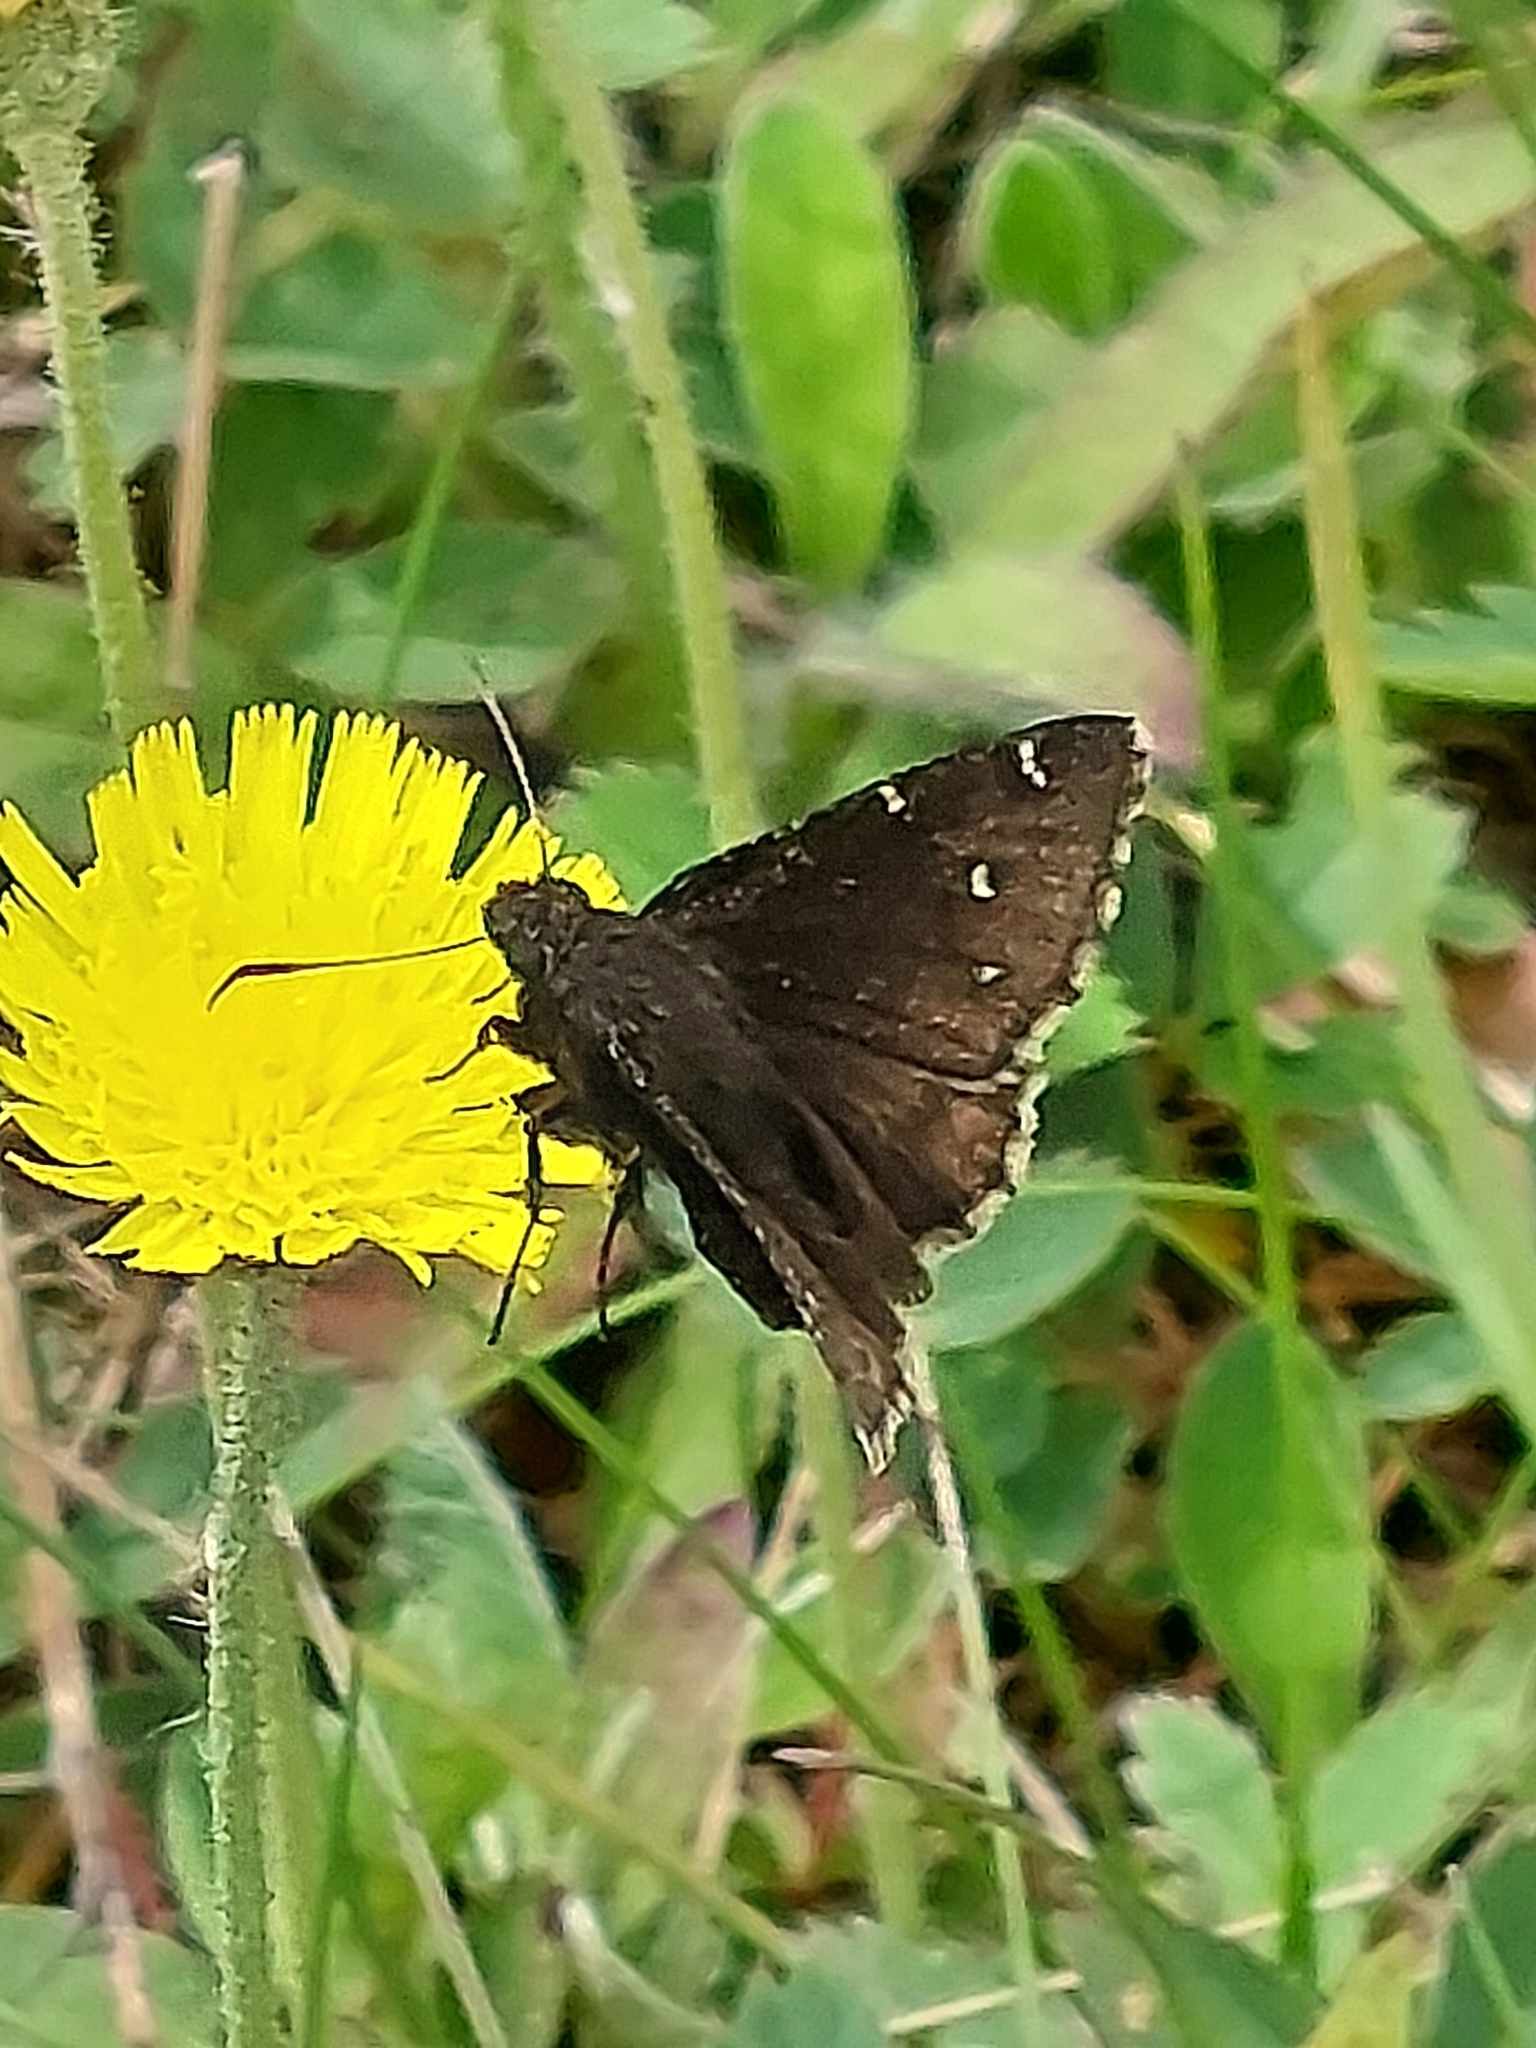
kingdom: Animalia
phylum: Arthropoda
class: Insecta
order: Lepidoptera
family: Hesperiidae
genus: Thorybes
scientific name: Thorybes pylades
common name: Northern cloudywing
